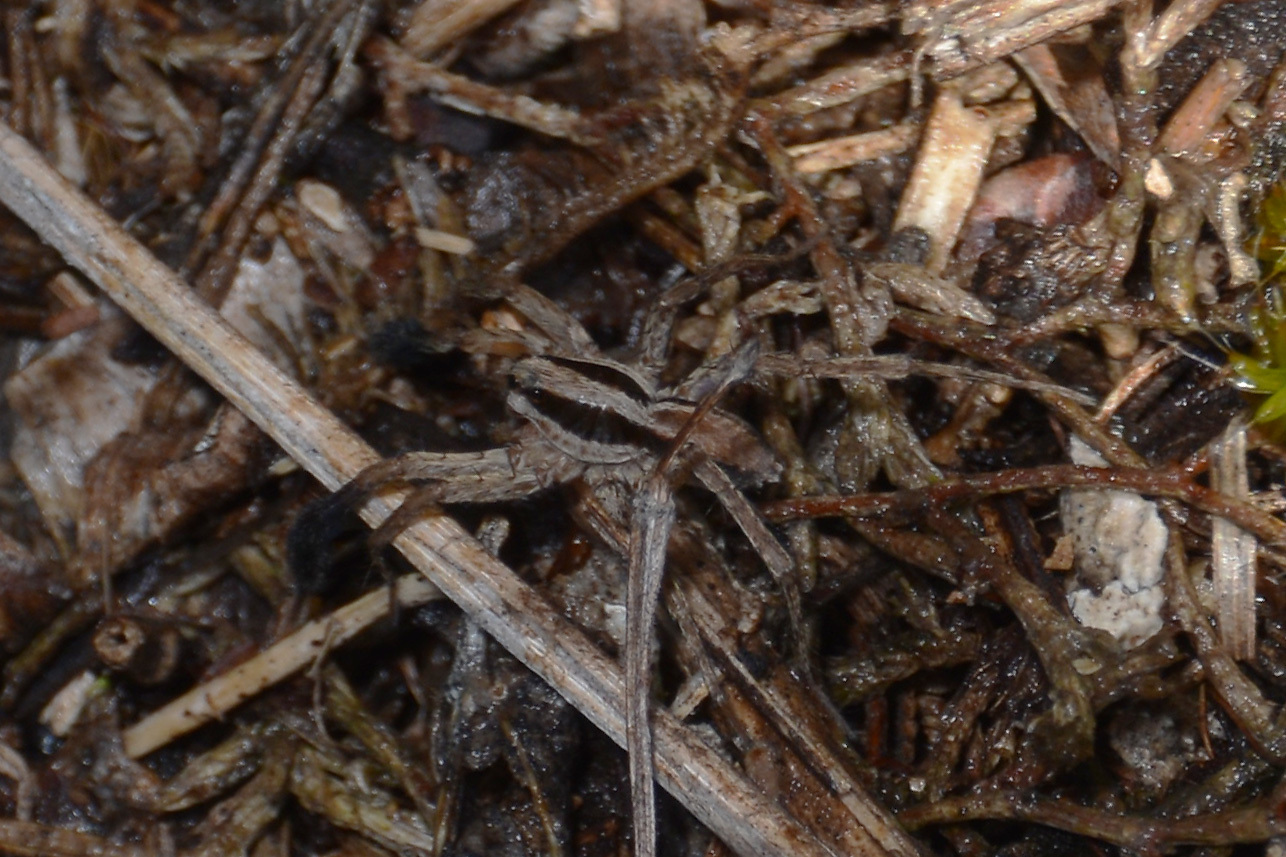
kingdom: Animalia
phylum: Arthropoda
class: Arachnida
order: Araneae
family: Lycosidae
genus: Pardosa
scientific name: Pardosa plumipedata
